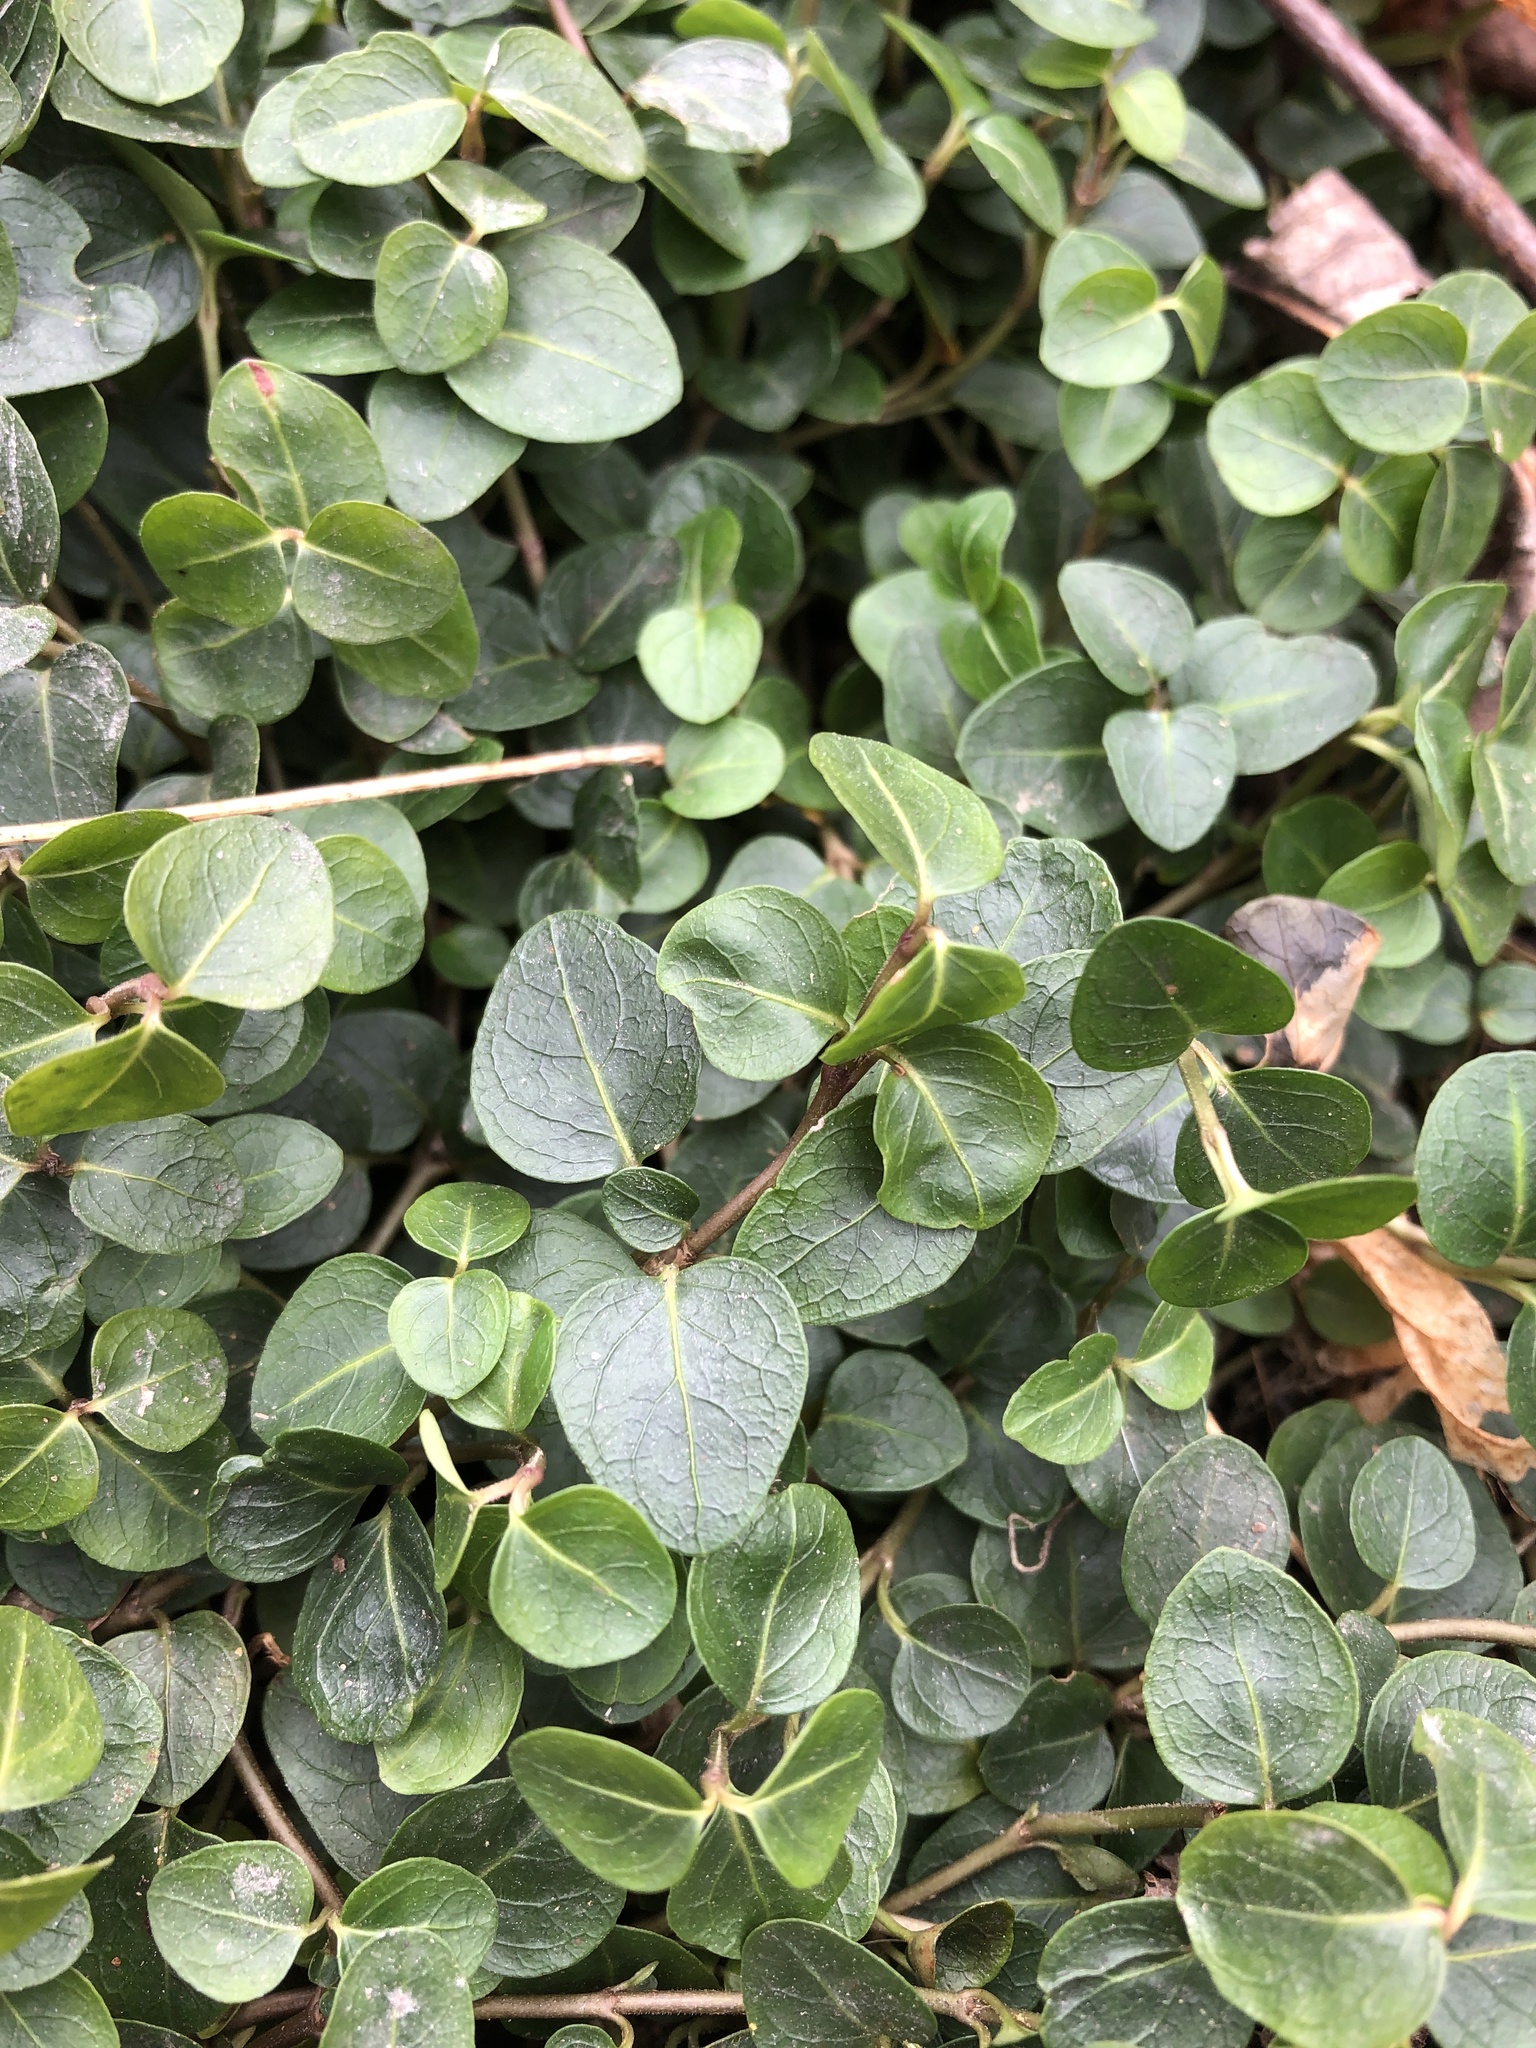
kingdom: Plantae
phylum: Tracheophyta
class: Magnoliopsida
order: Gentianales
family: Rubiaceae
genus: Mitchella
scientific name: Mitchella repens
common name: Partridge-berry
